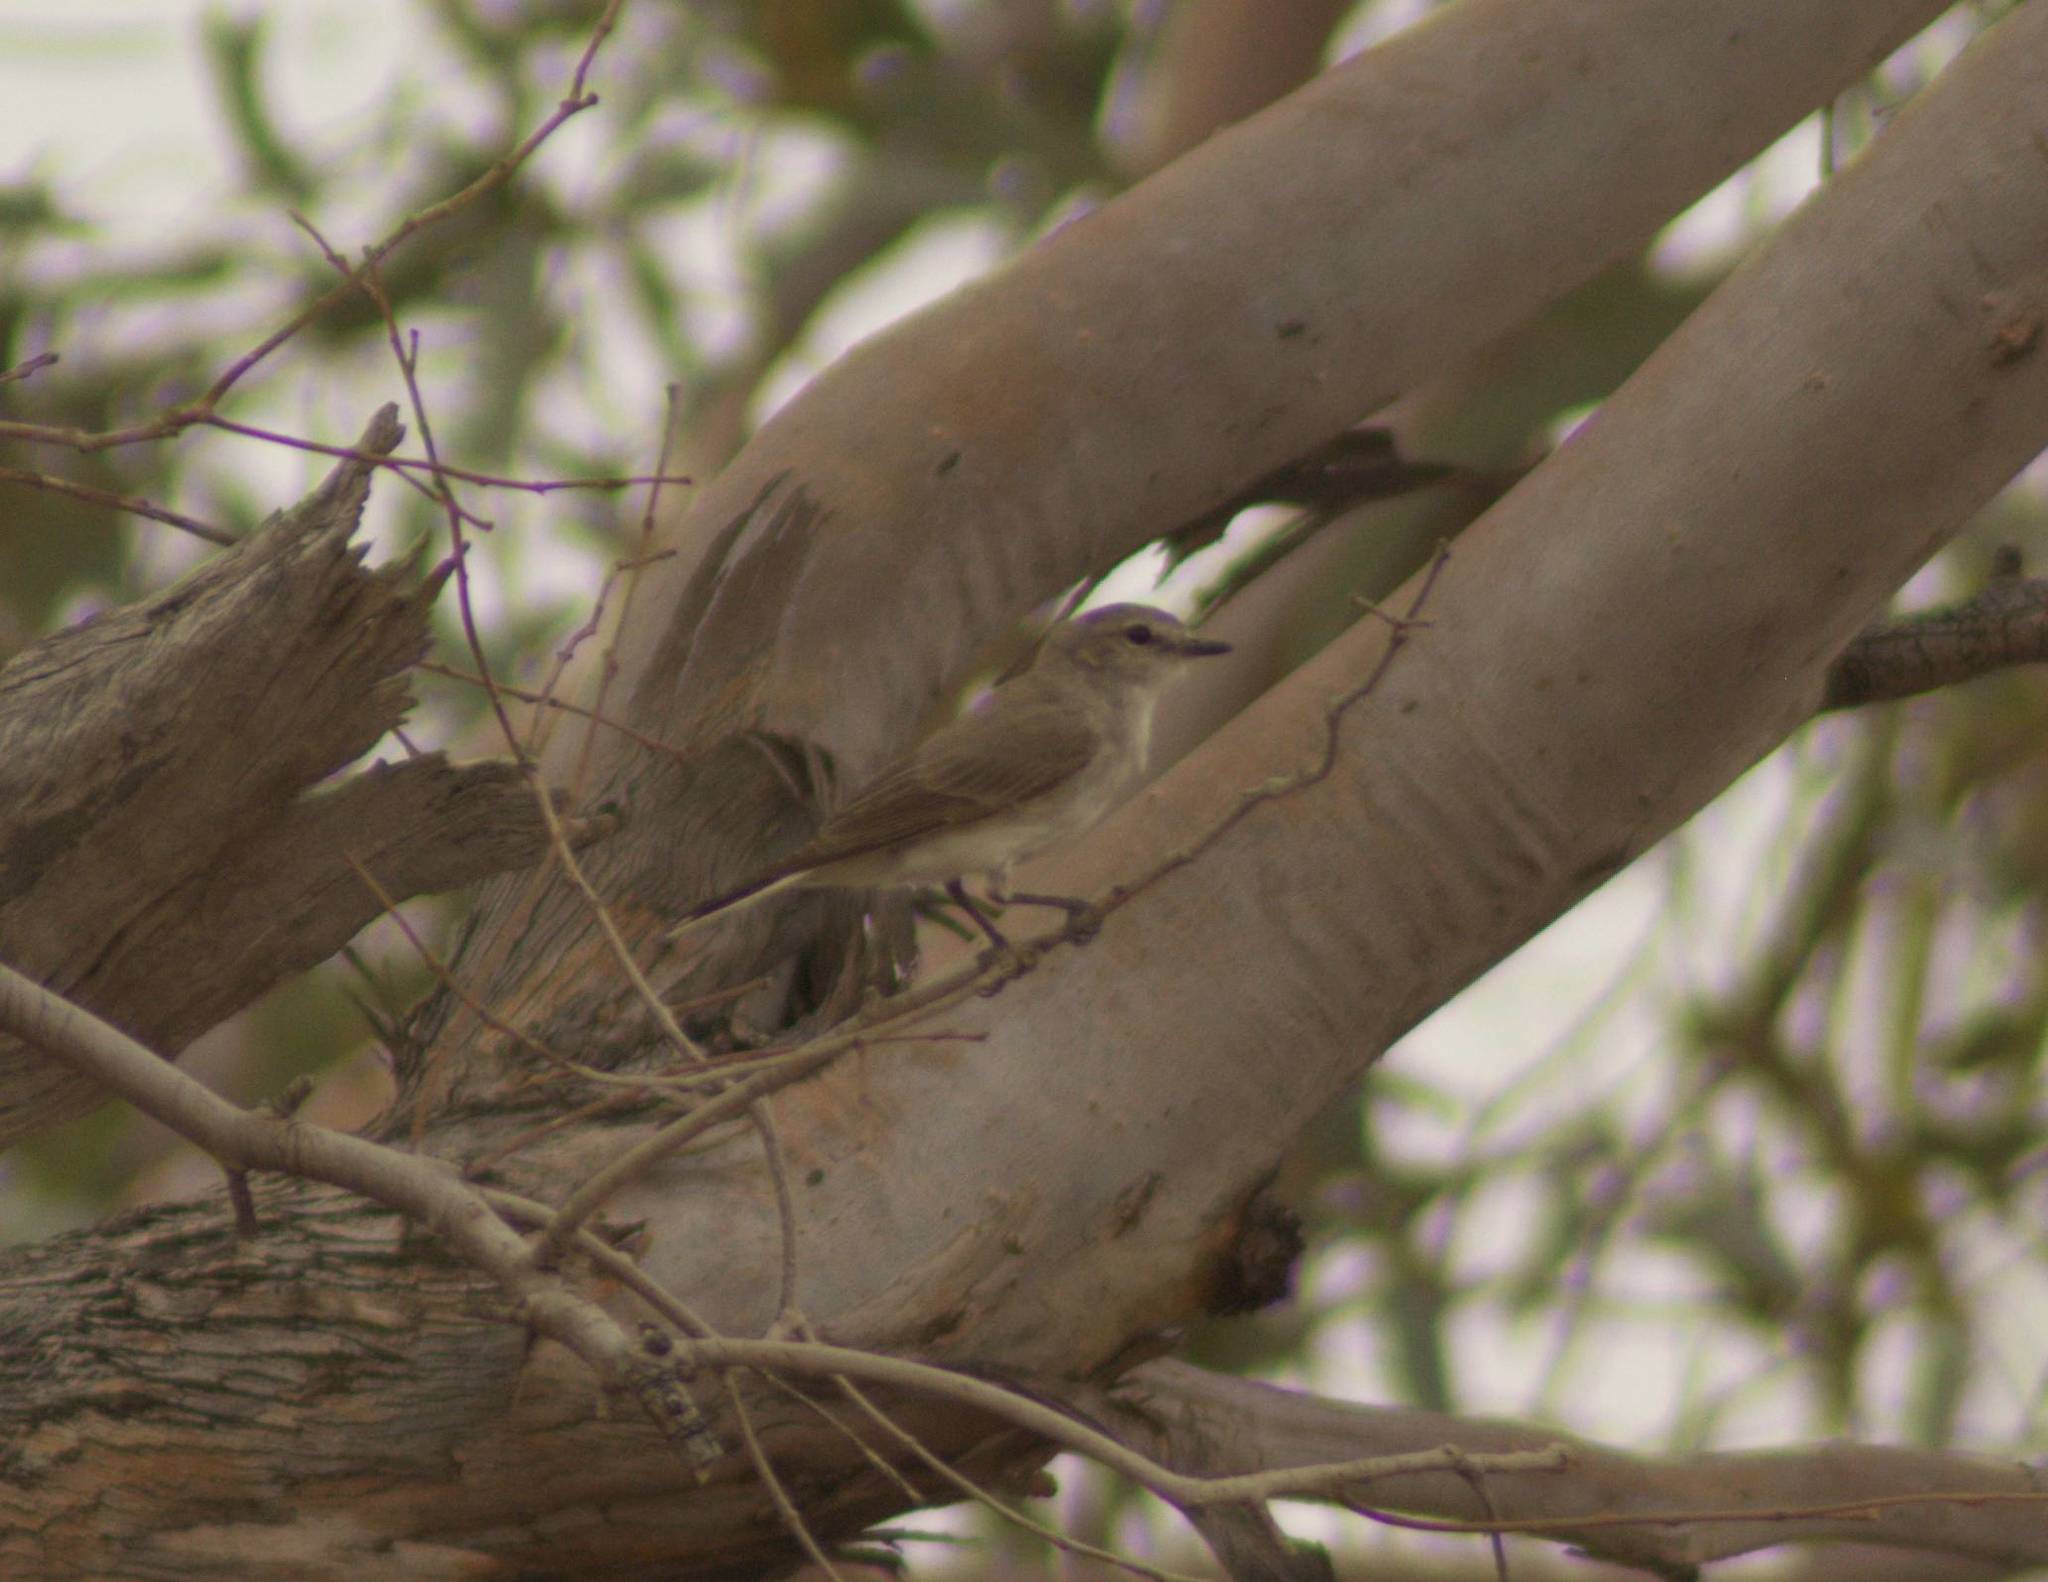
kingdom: Animalia
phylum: Chordata
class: Aves
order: Passeriformes
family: Petroicidae
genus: Microeca
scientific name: Microeca fascinans
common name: Jacky winter
